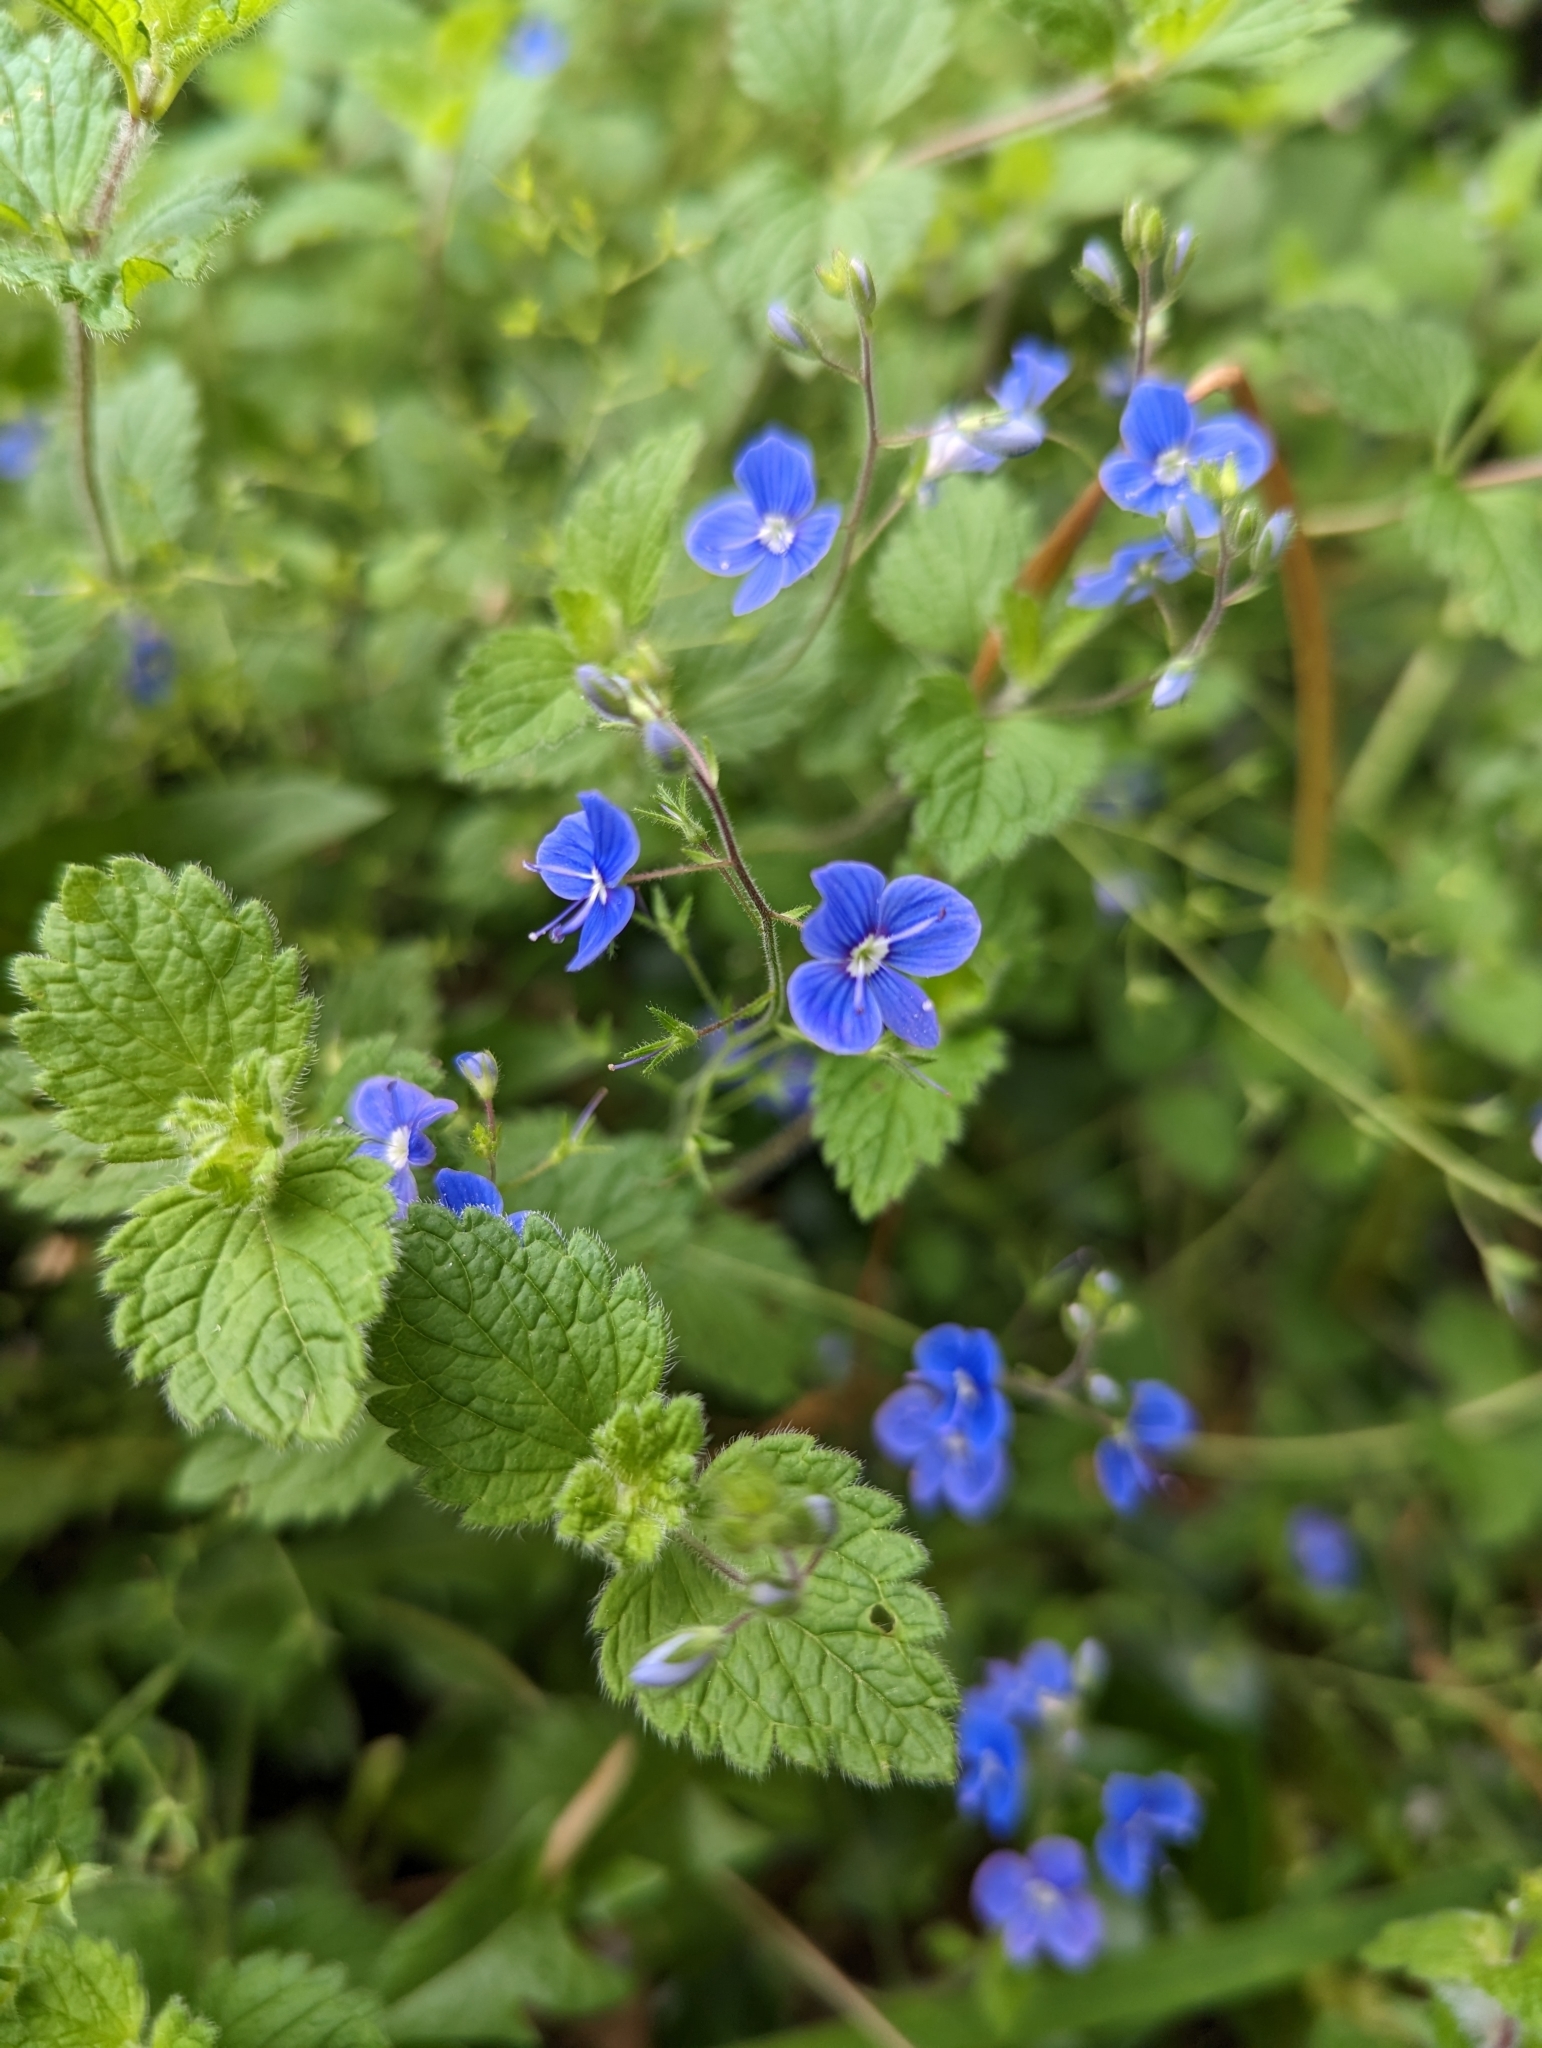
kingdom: Plantae
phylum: Tracheophyta
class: Magnoliopsida
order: Lamiales
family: Plantaginaceae
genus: Veronica
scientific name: Veronica chamaedrys
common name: Germander speedwell
